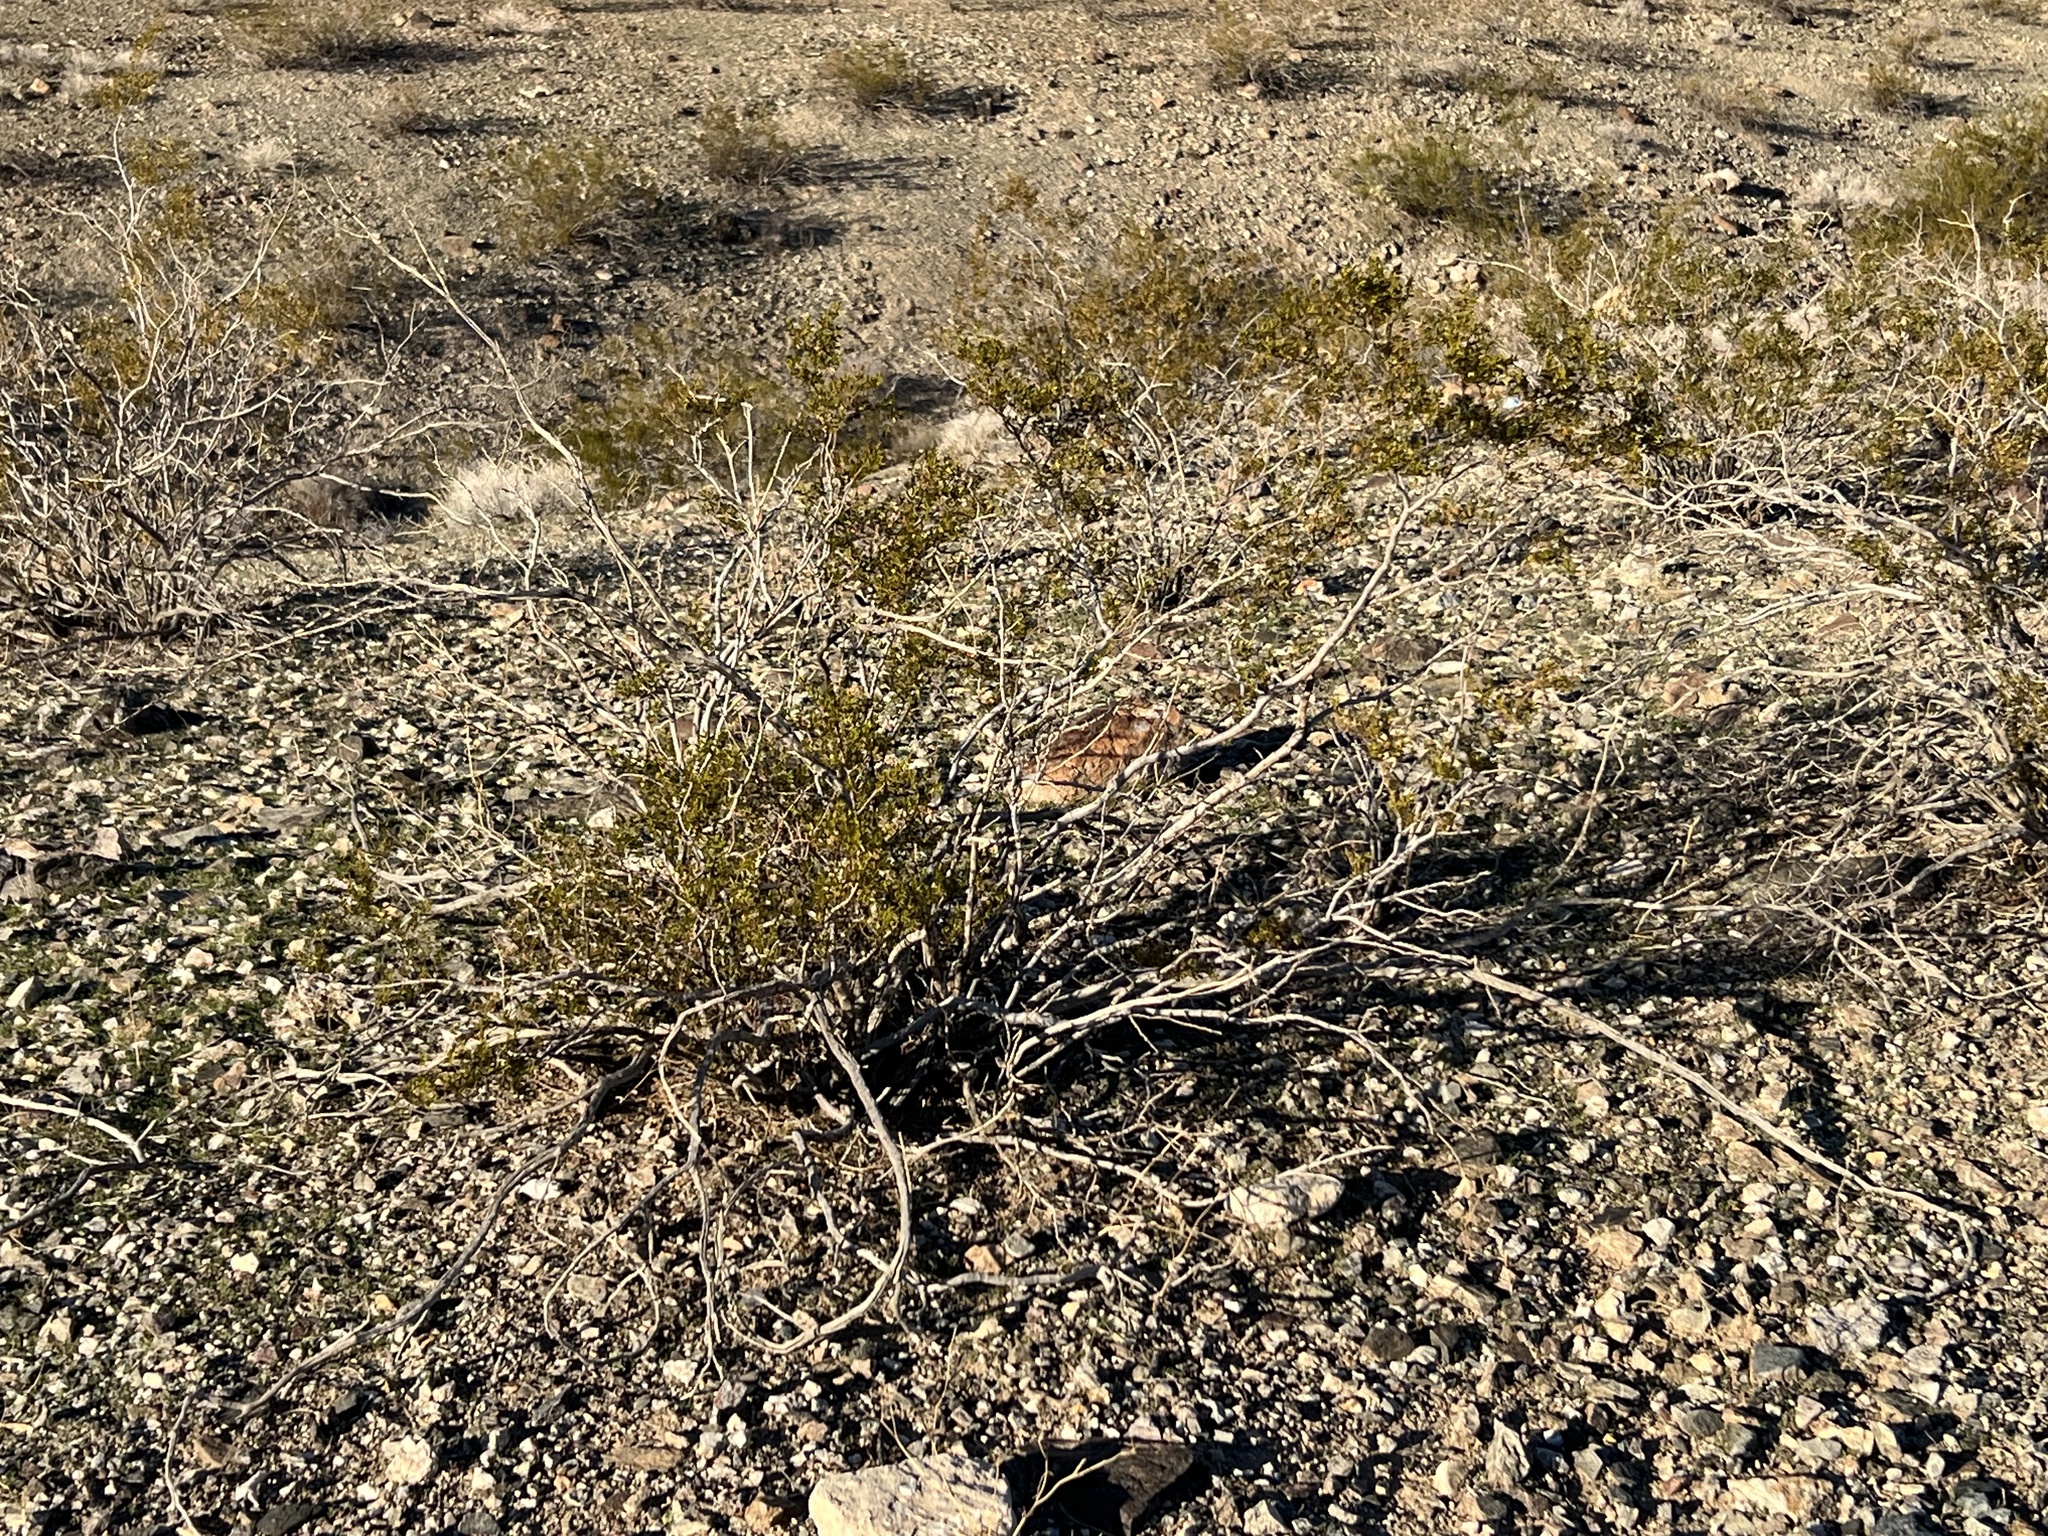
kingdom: Plantae
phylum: Tracheophyta
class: Magnoliopsida
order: Zygophyllales
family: Zygophyllaceae
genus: Larrea
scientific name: Larrea tridentata
